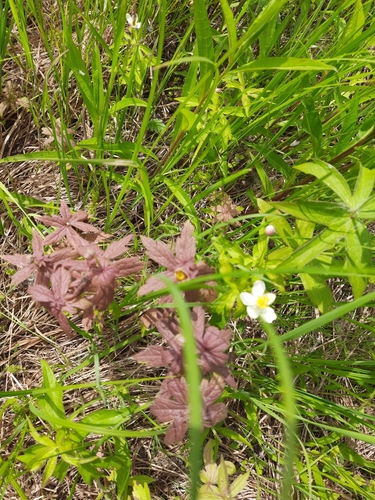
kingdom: Fungi
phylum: Ascomycota
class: Leotiomycetes
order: Helotiales
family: Sclerotiniaceae
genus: Botrytis
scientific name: Botrytis
